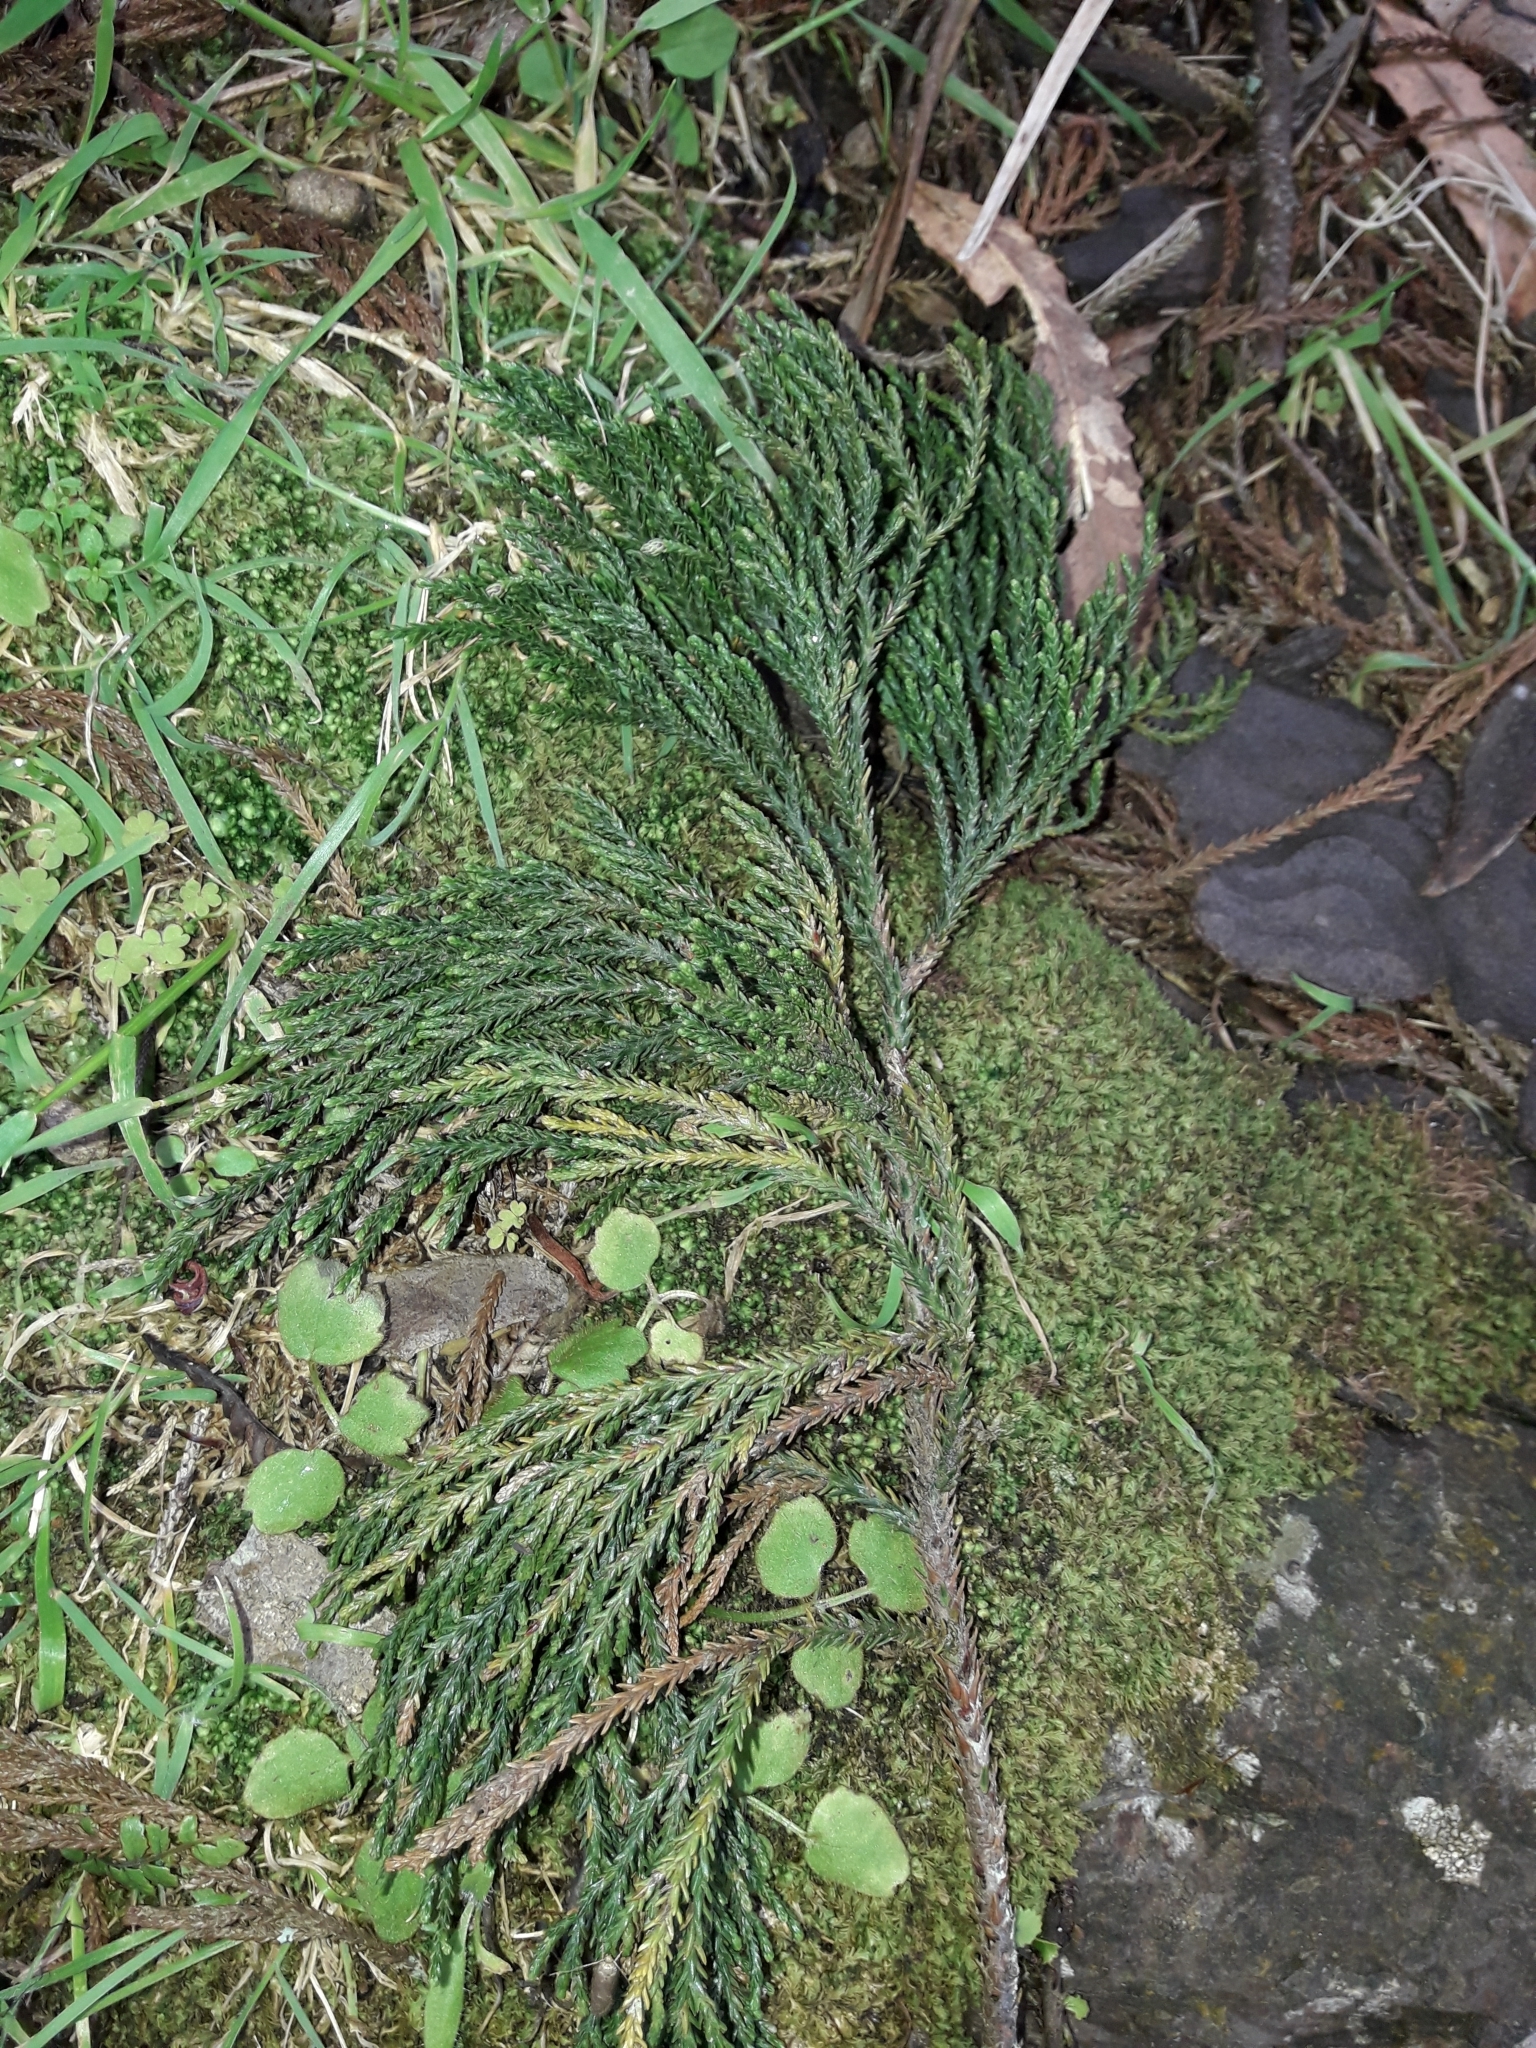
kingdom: Plantae
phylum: Tracheophyta
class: Pinopsida
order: Pinales
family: Podocarpaceae
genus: Dacrydium
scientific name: Dacrydium cupressinum
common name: Red pine
